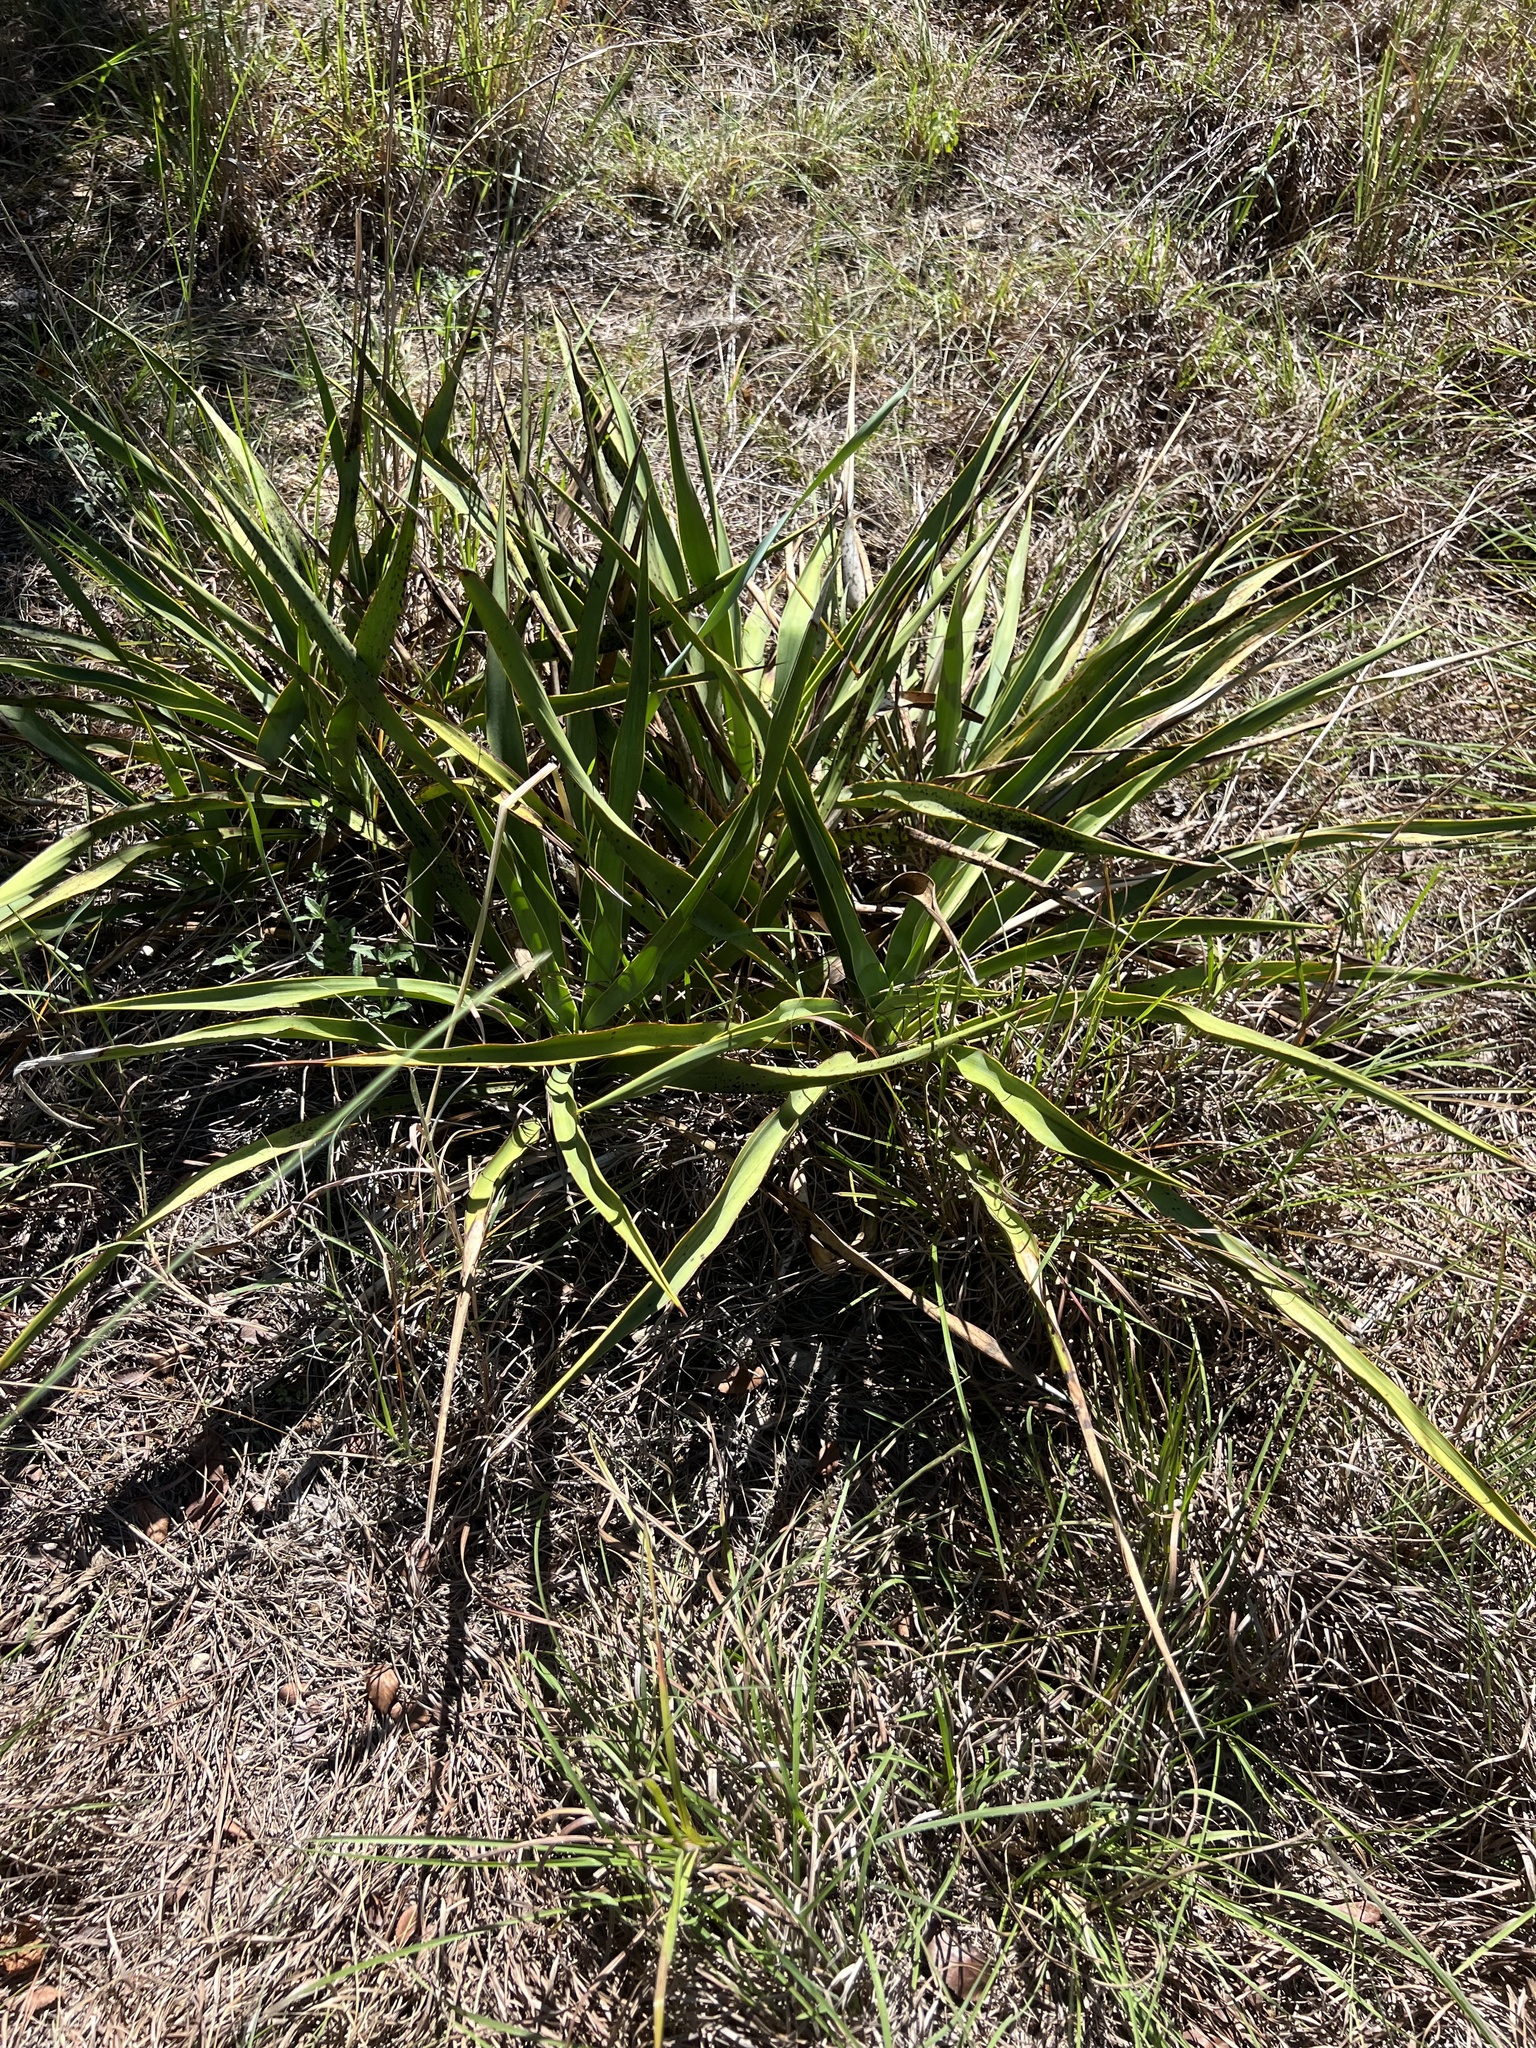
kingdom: Plantae
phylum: Tracheophyta
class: Liliopsida
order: Asparagales
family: Asparagaceae
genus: Yucca
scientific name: Yucca rupicola
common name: Twisted-leaf spanish-dagger
